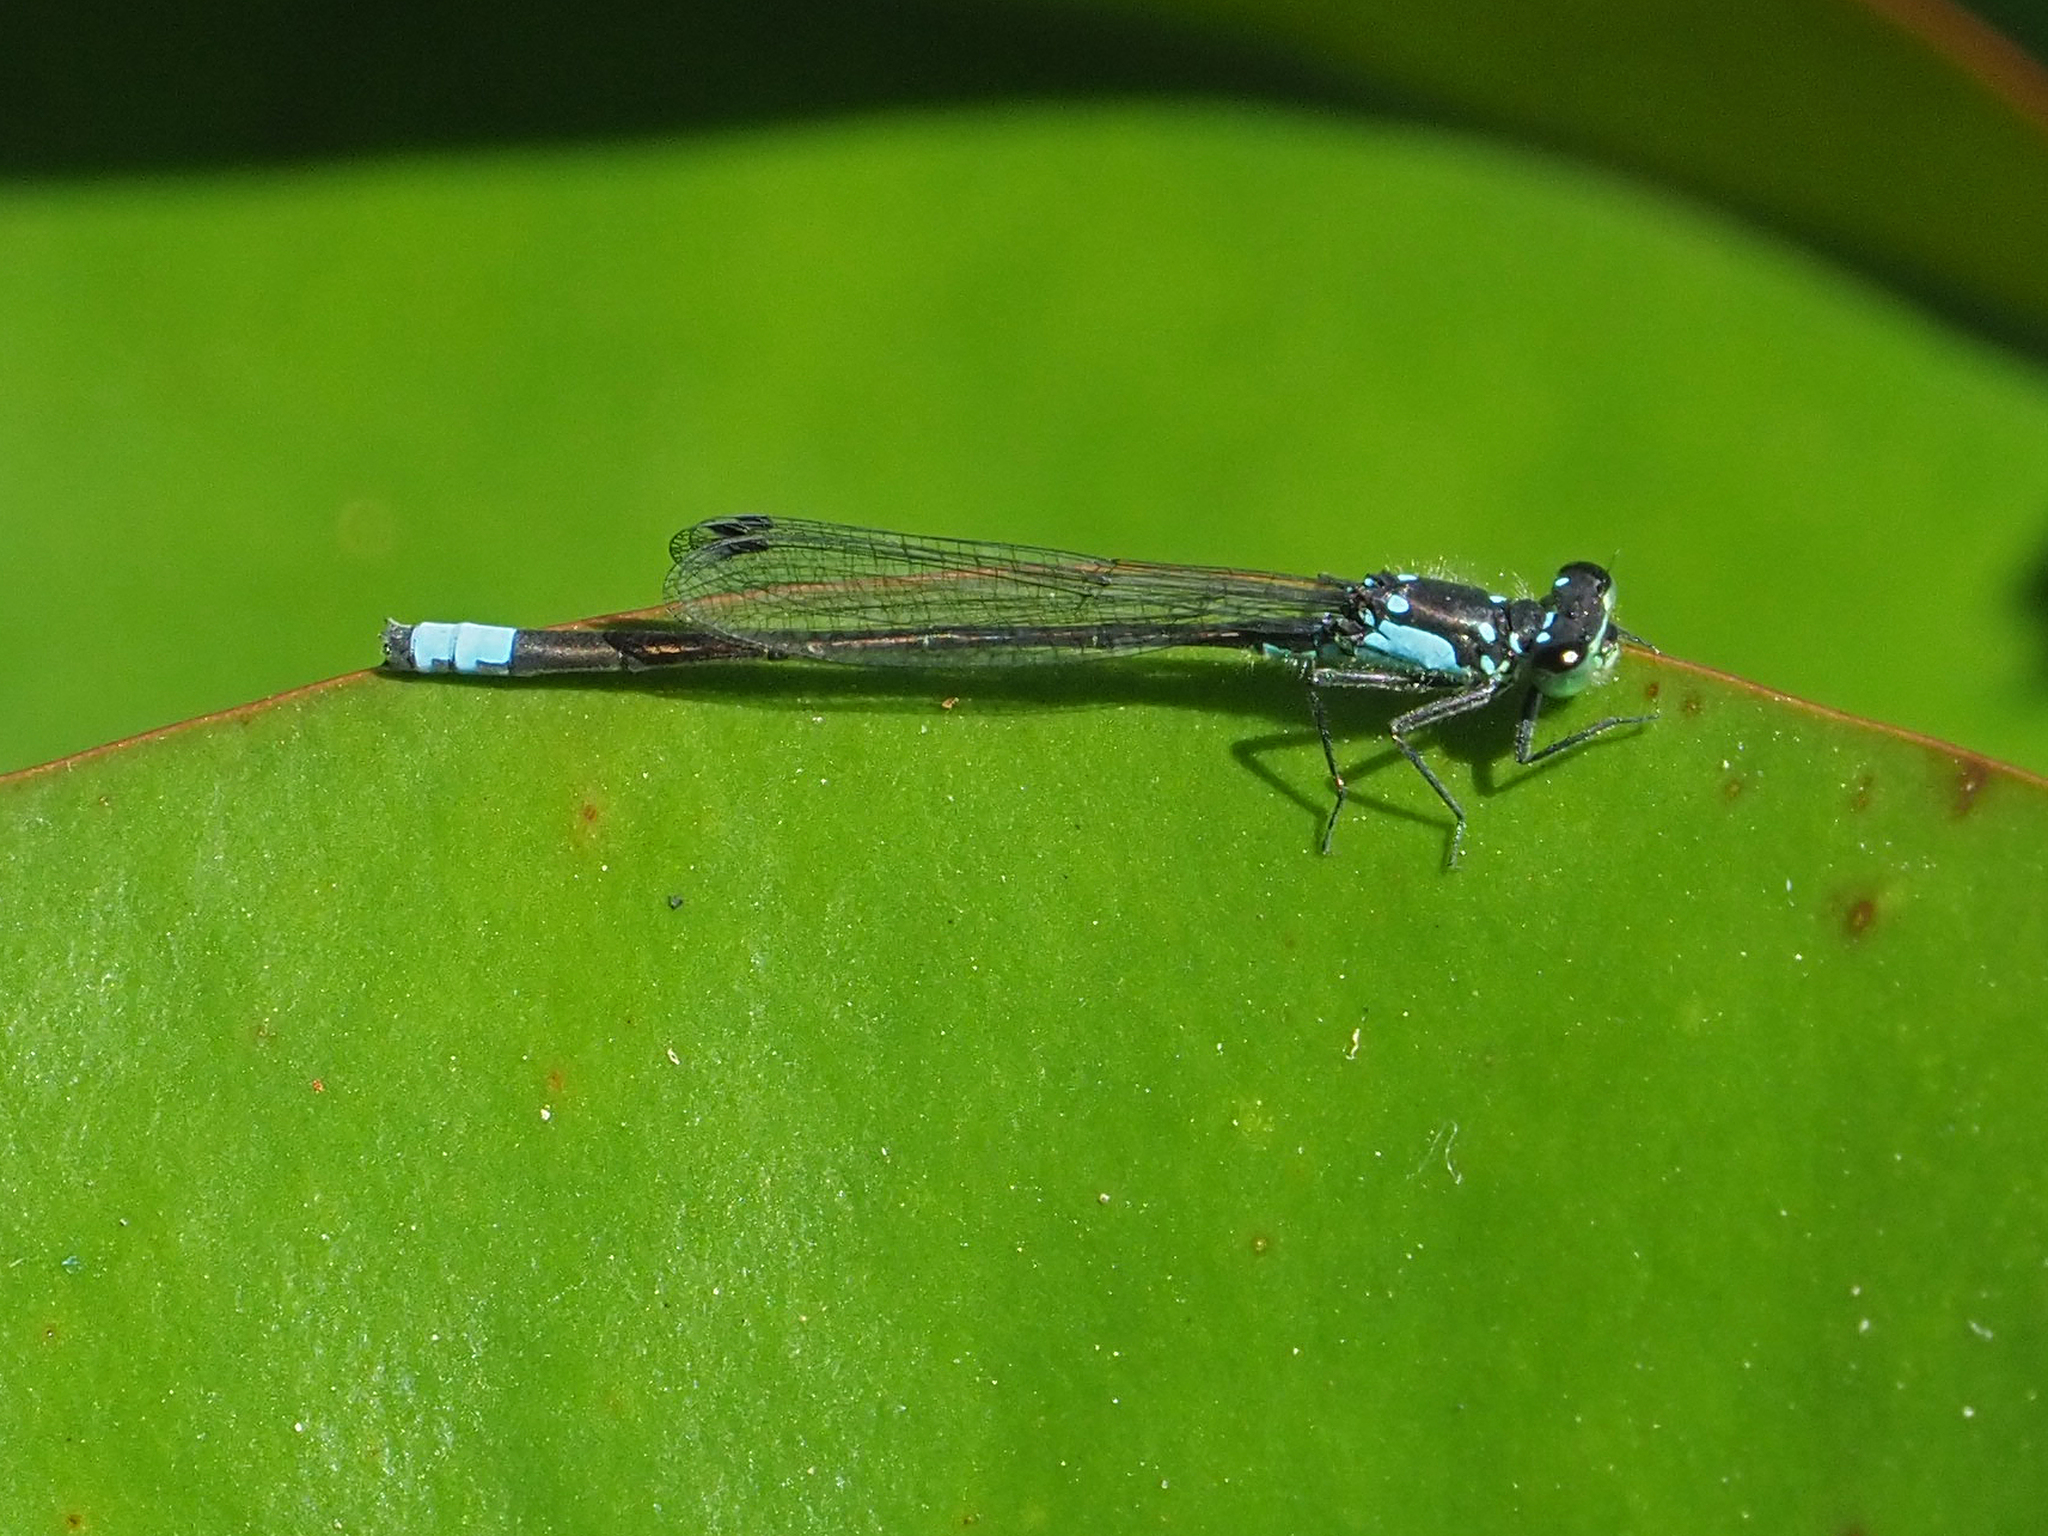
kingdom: Animalia
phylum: Arthropoda
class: Insecta
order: Odonata
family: Coenagrionidae
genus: Ischnura
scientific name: Ischnura cervula
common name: Pacific forktail
